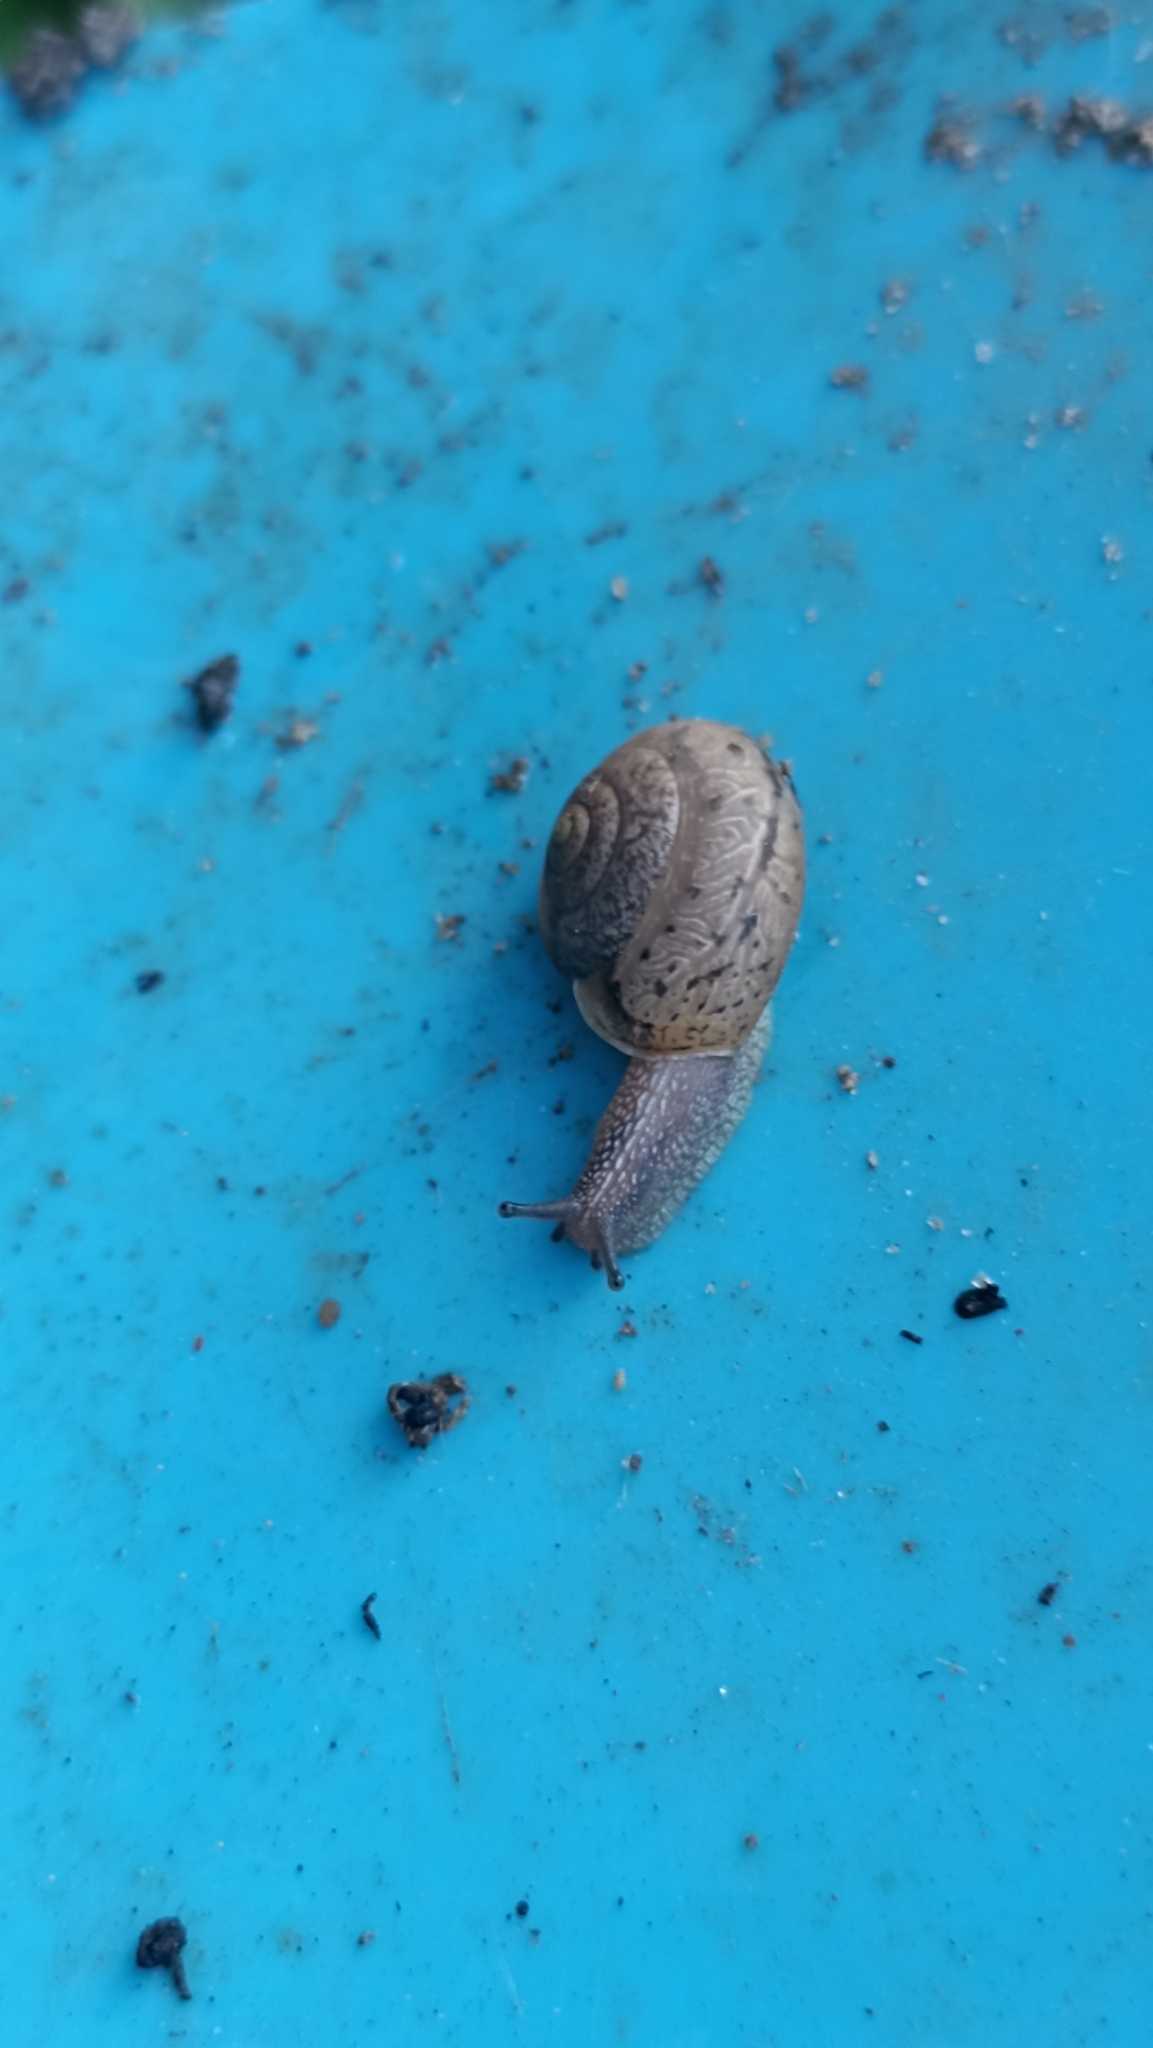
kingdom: Animalia
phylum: Mollusca
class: Gastropoda
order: Stylommatophora
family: Camaenidae
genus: Bradybaena
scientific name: Bradybaena similaris
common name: Asian trampsnail
